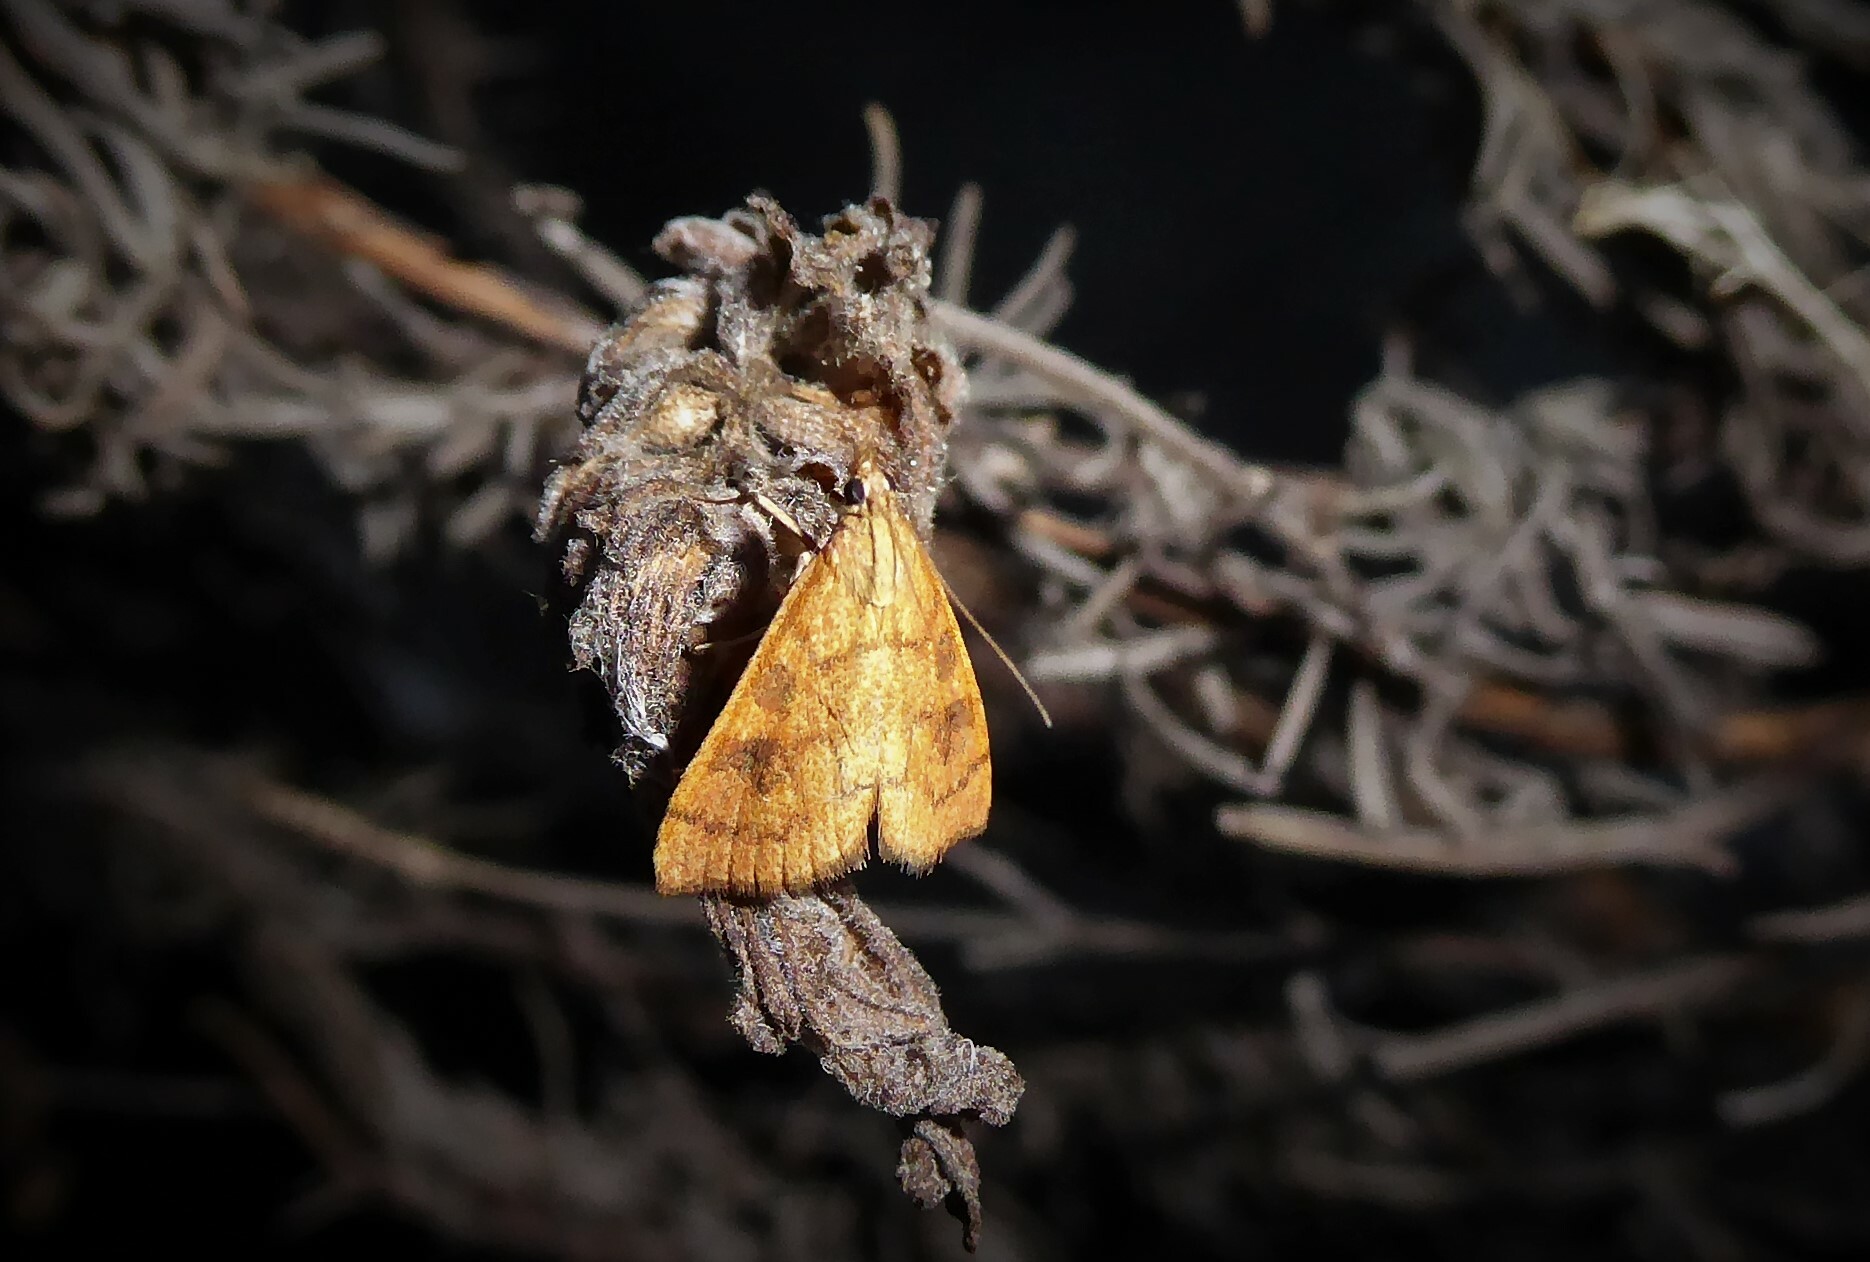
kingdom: Animalia
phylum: Arthropoda
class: Insecta
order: Lepidoptera
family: Crambidae
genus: Udea
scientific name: Udea Mnesictena flavidalis
